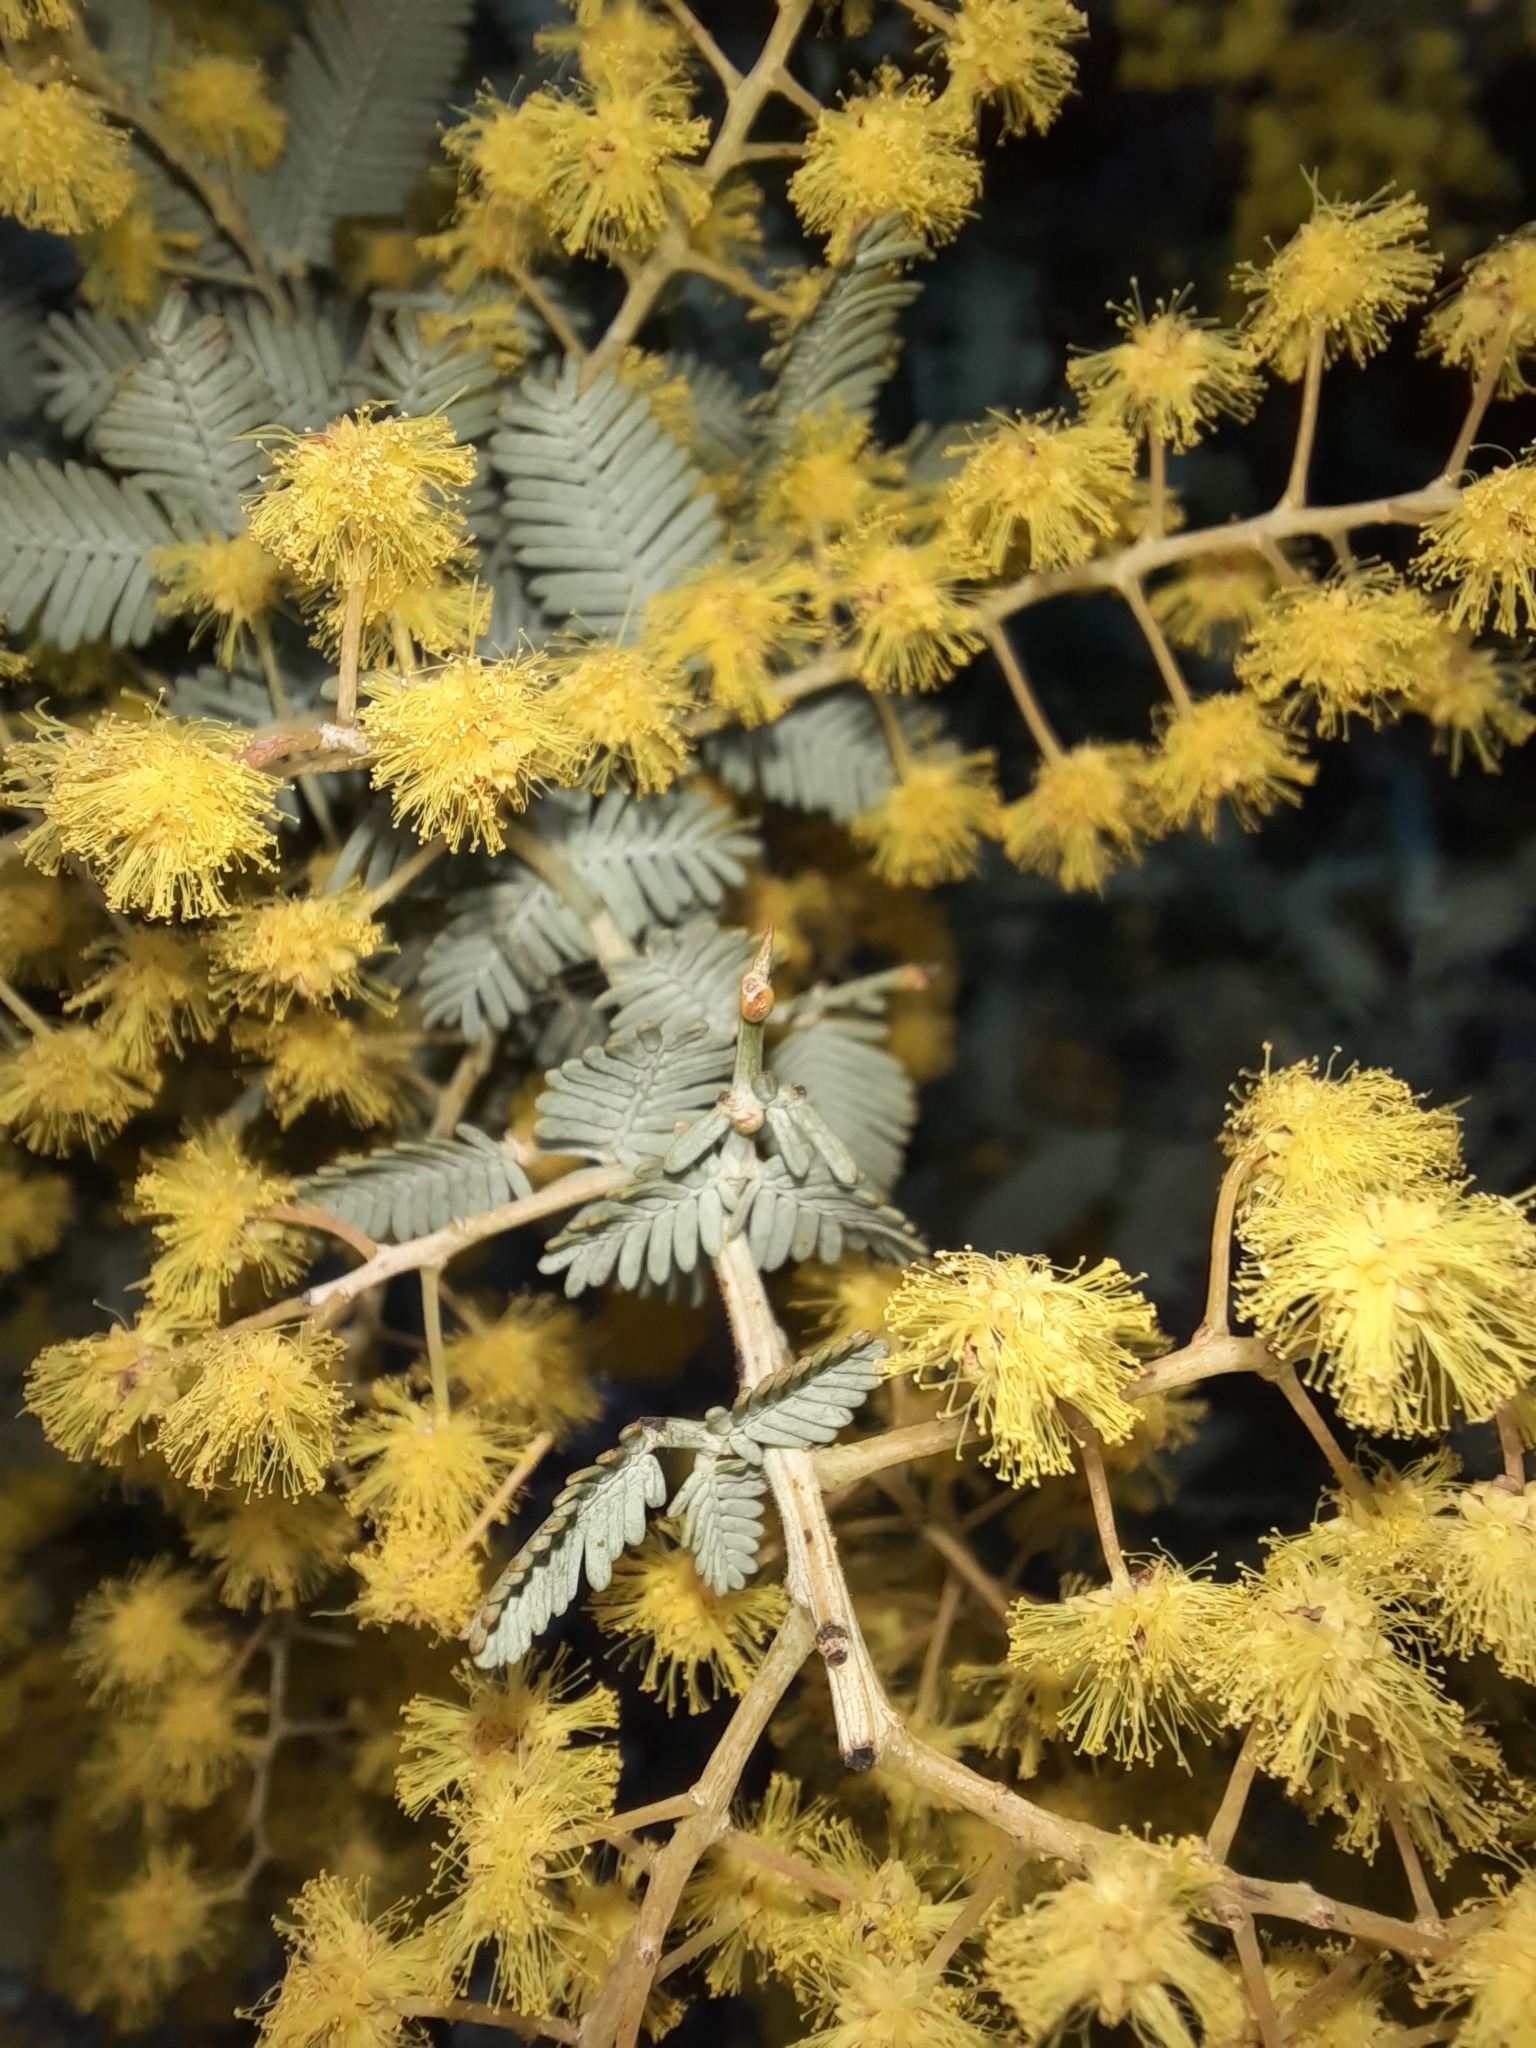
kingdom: Plantae
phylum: Tracheophyta
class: Magnoliopsida
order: Fabales
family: Fabaceae
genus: Acacia
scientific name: Acacia dealbata
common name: Silver wattle
